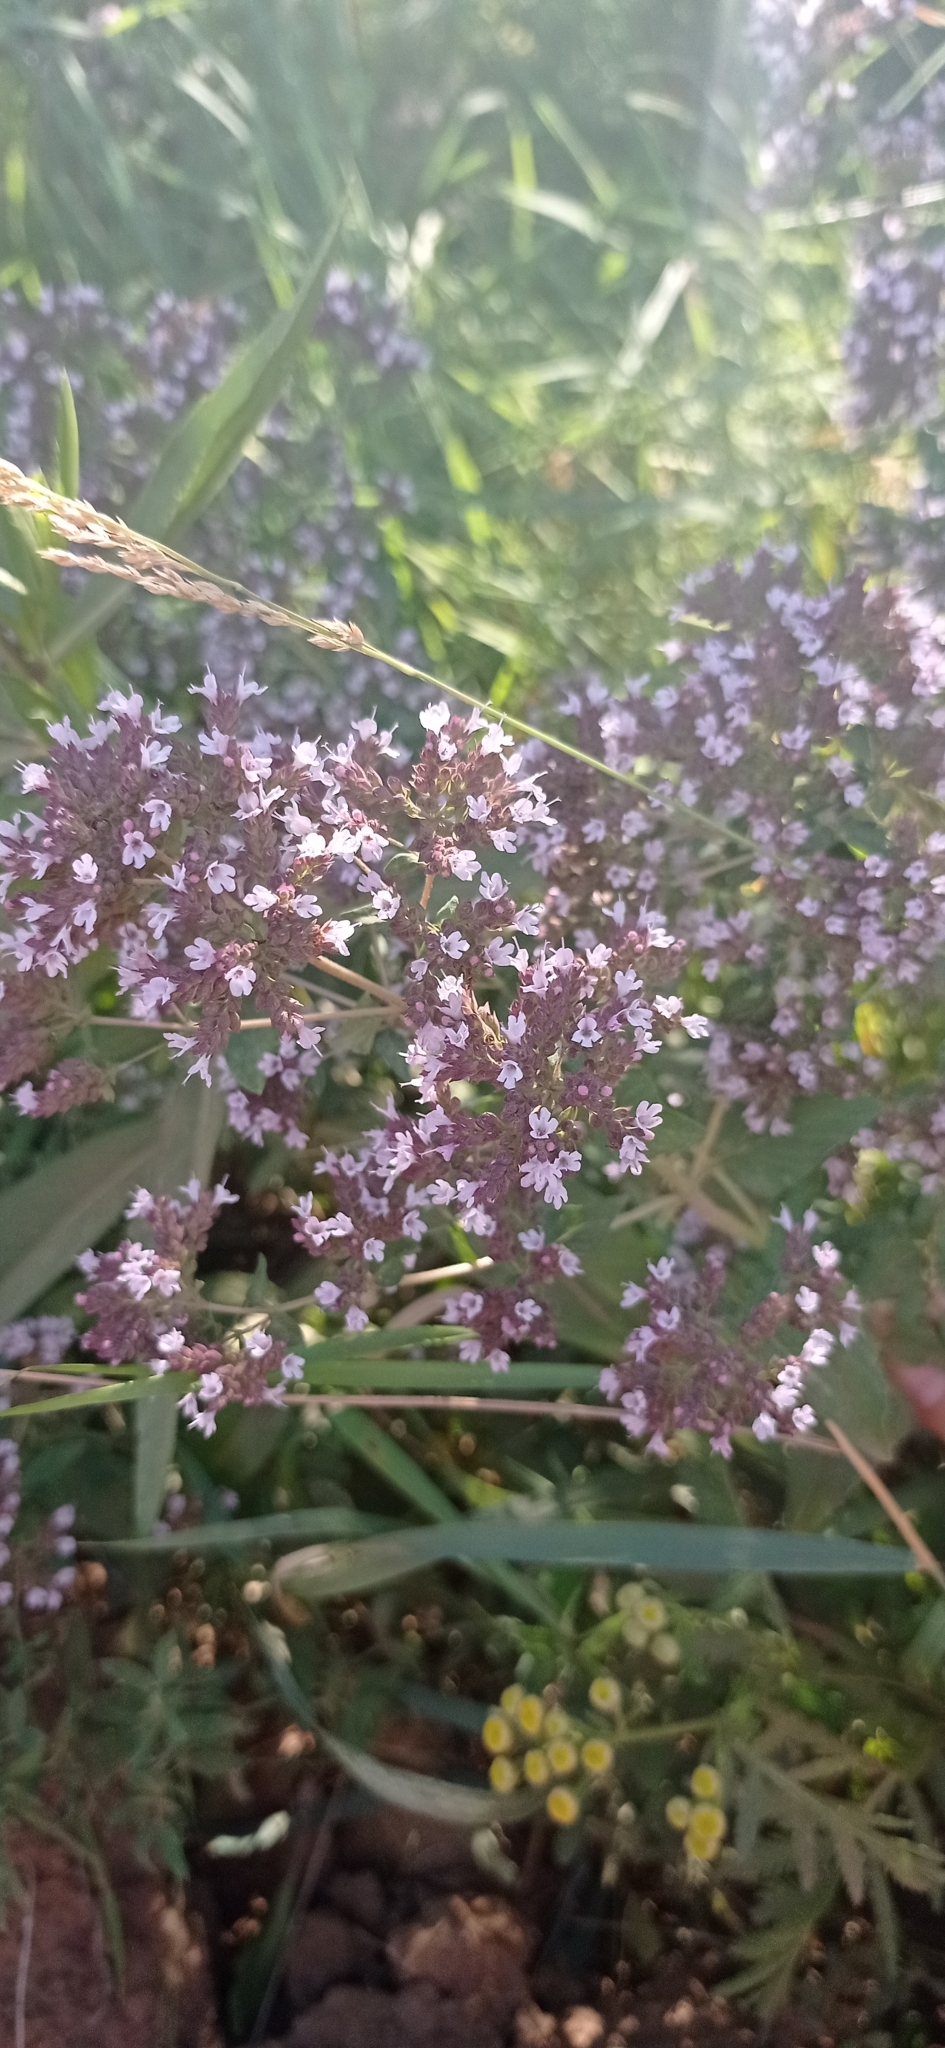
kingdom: Plantae
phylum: Tracheophyta
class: Magnoliopsida
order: Lamiales
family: Lamiaceae
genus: Origanum
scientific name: Origanum vulgare
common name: Wild marjoram
